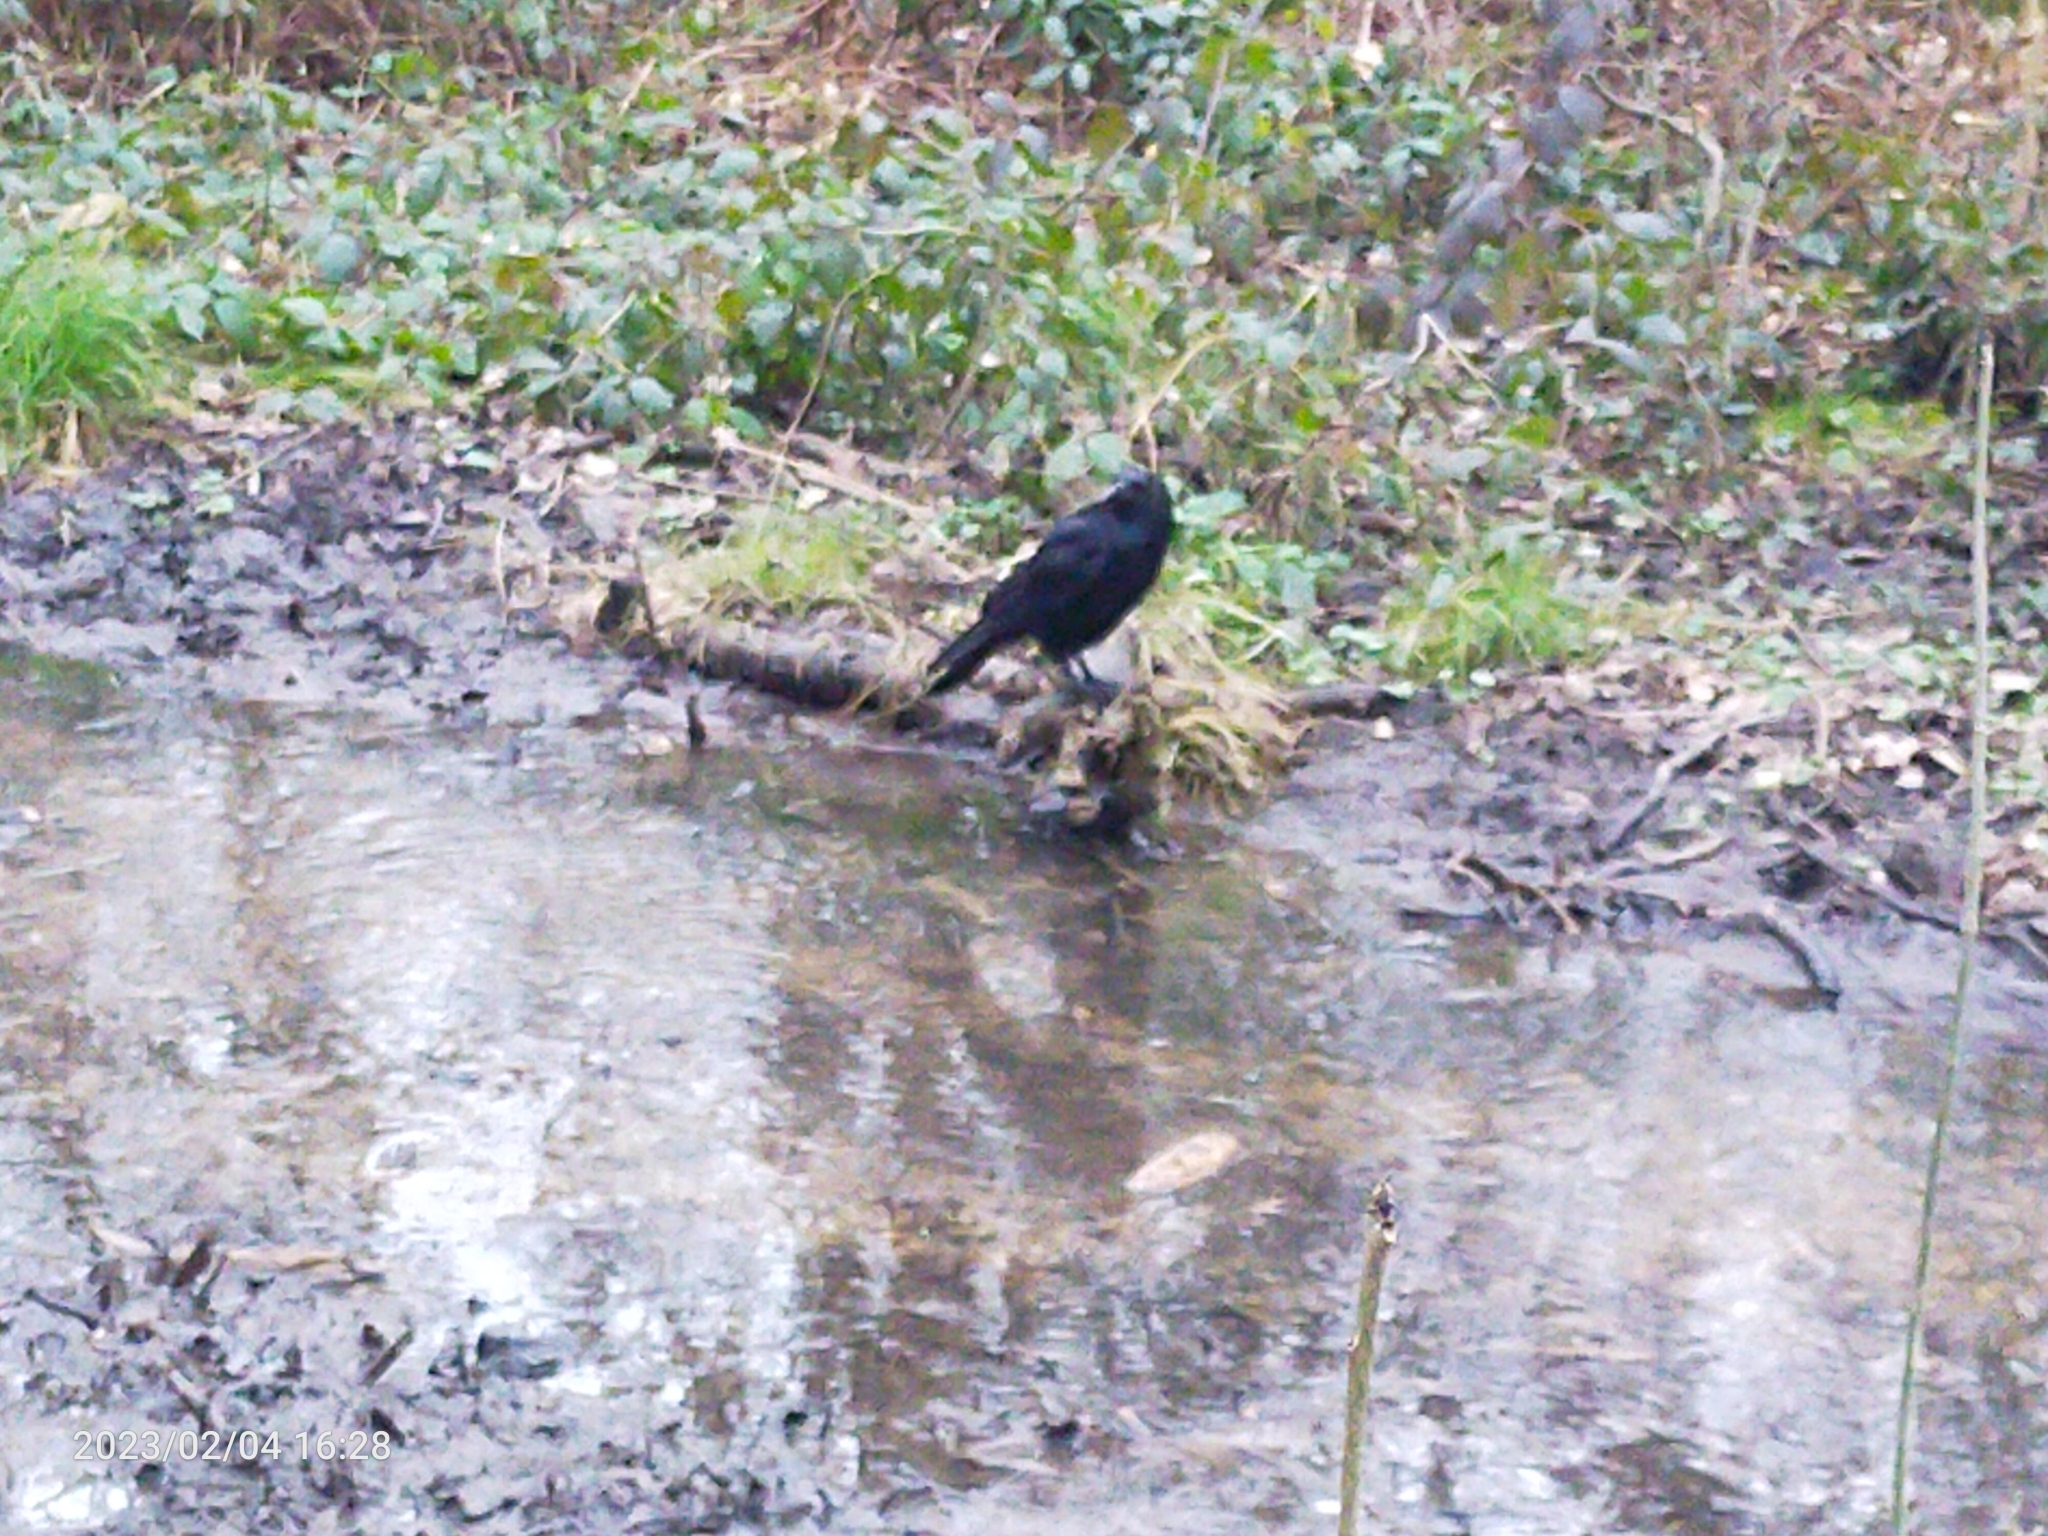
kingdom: Animalia
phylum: Chordata
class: Aves
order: Passeriformes
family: Corvidae
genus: Corvus
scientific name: Corvus corone
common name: Carrion crow
